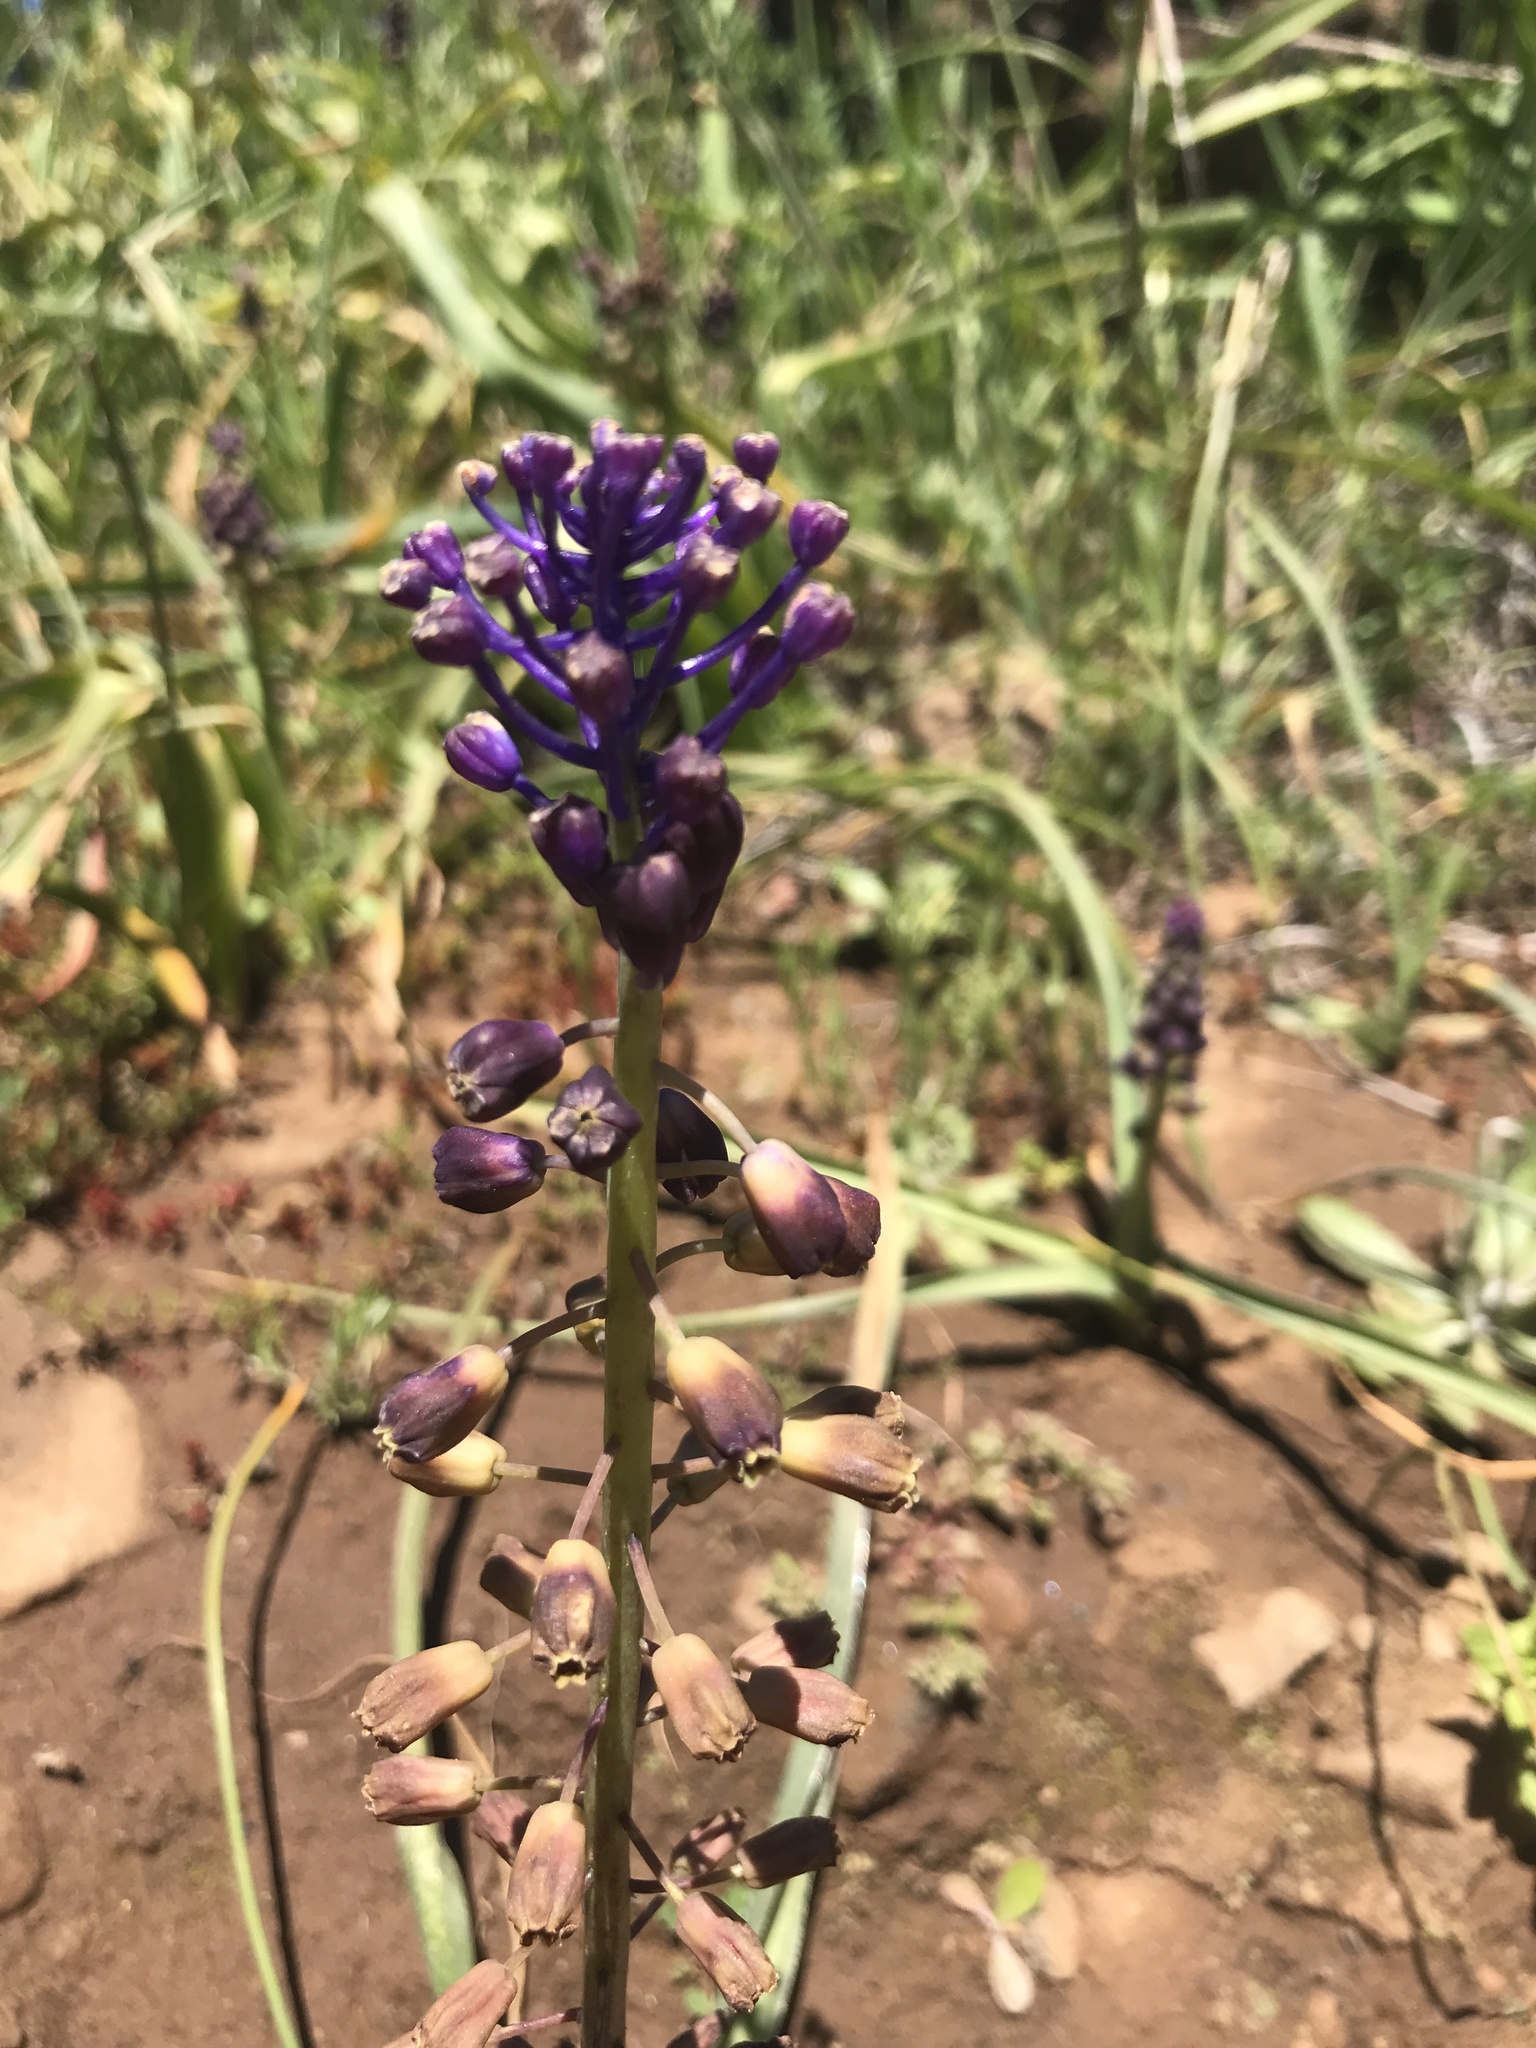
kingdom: Plantae
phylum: Tracheophyta
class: Liliopsida
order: Asparagales
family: Asparagaceae
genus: Muscari
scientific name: Muscari comosum
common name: Tassel hyacinth
